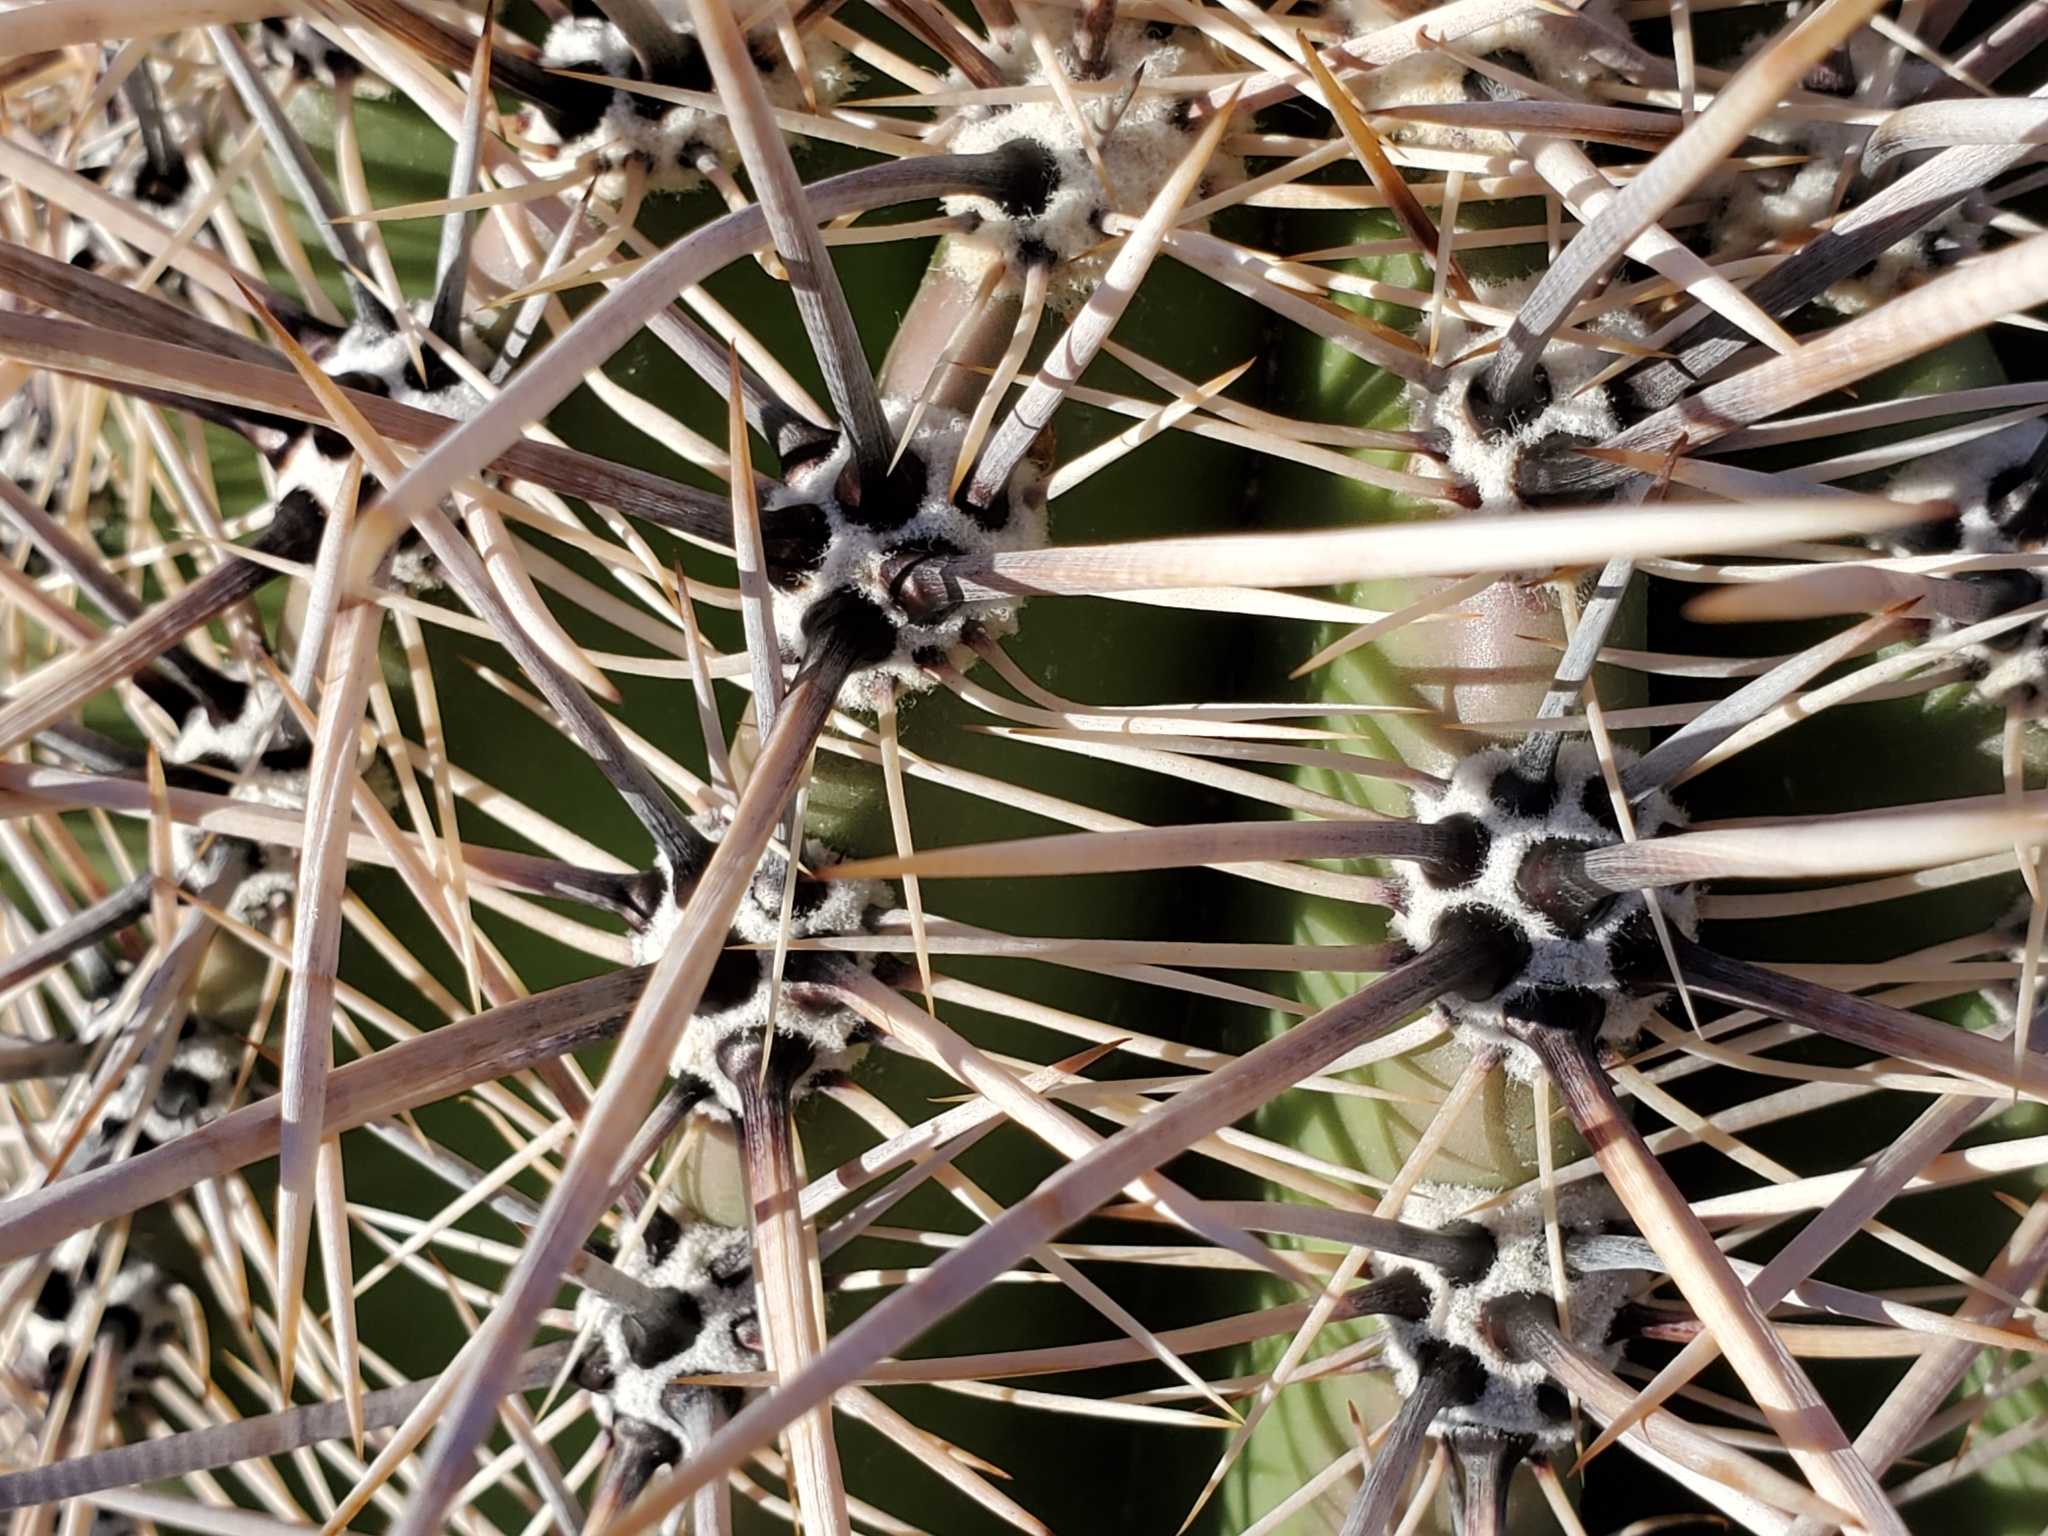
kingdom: Plantae
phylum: Tracheophyta
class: Magnoliopsida
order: Caryophyllales
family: Cactaceae
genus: Carnegiea
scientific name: Carnegiea gigantea
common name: Saguaro
